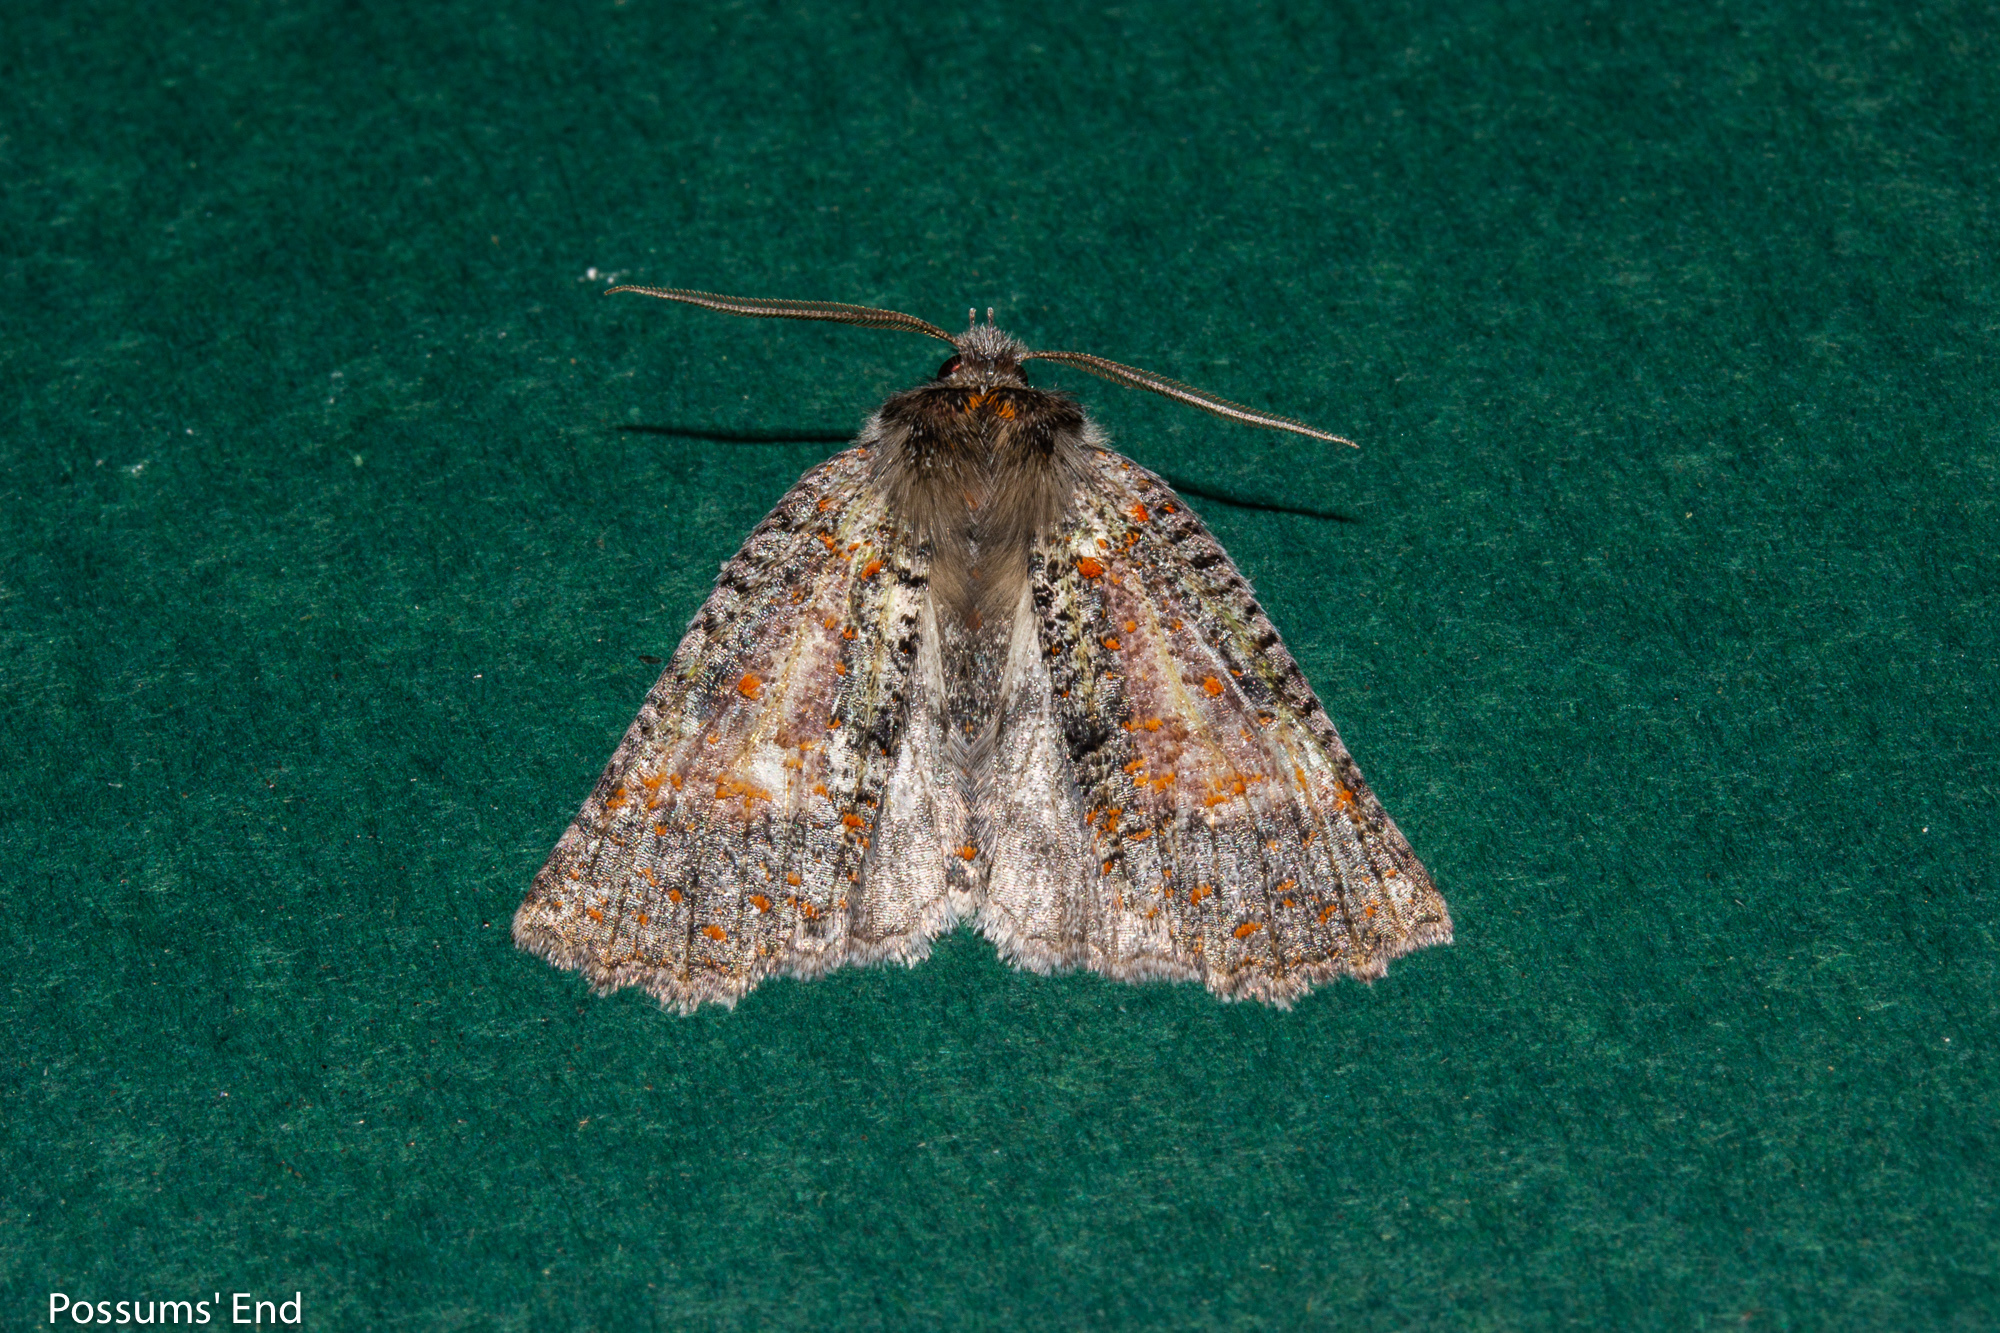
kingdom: Animalia
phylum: Arthropoda
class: Insecta
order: Lepidoptera
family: Geometridae
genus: Declana
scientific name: Declana floccosa
